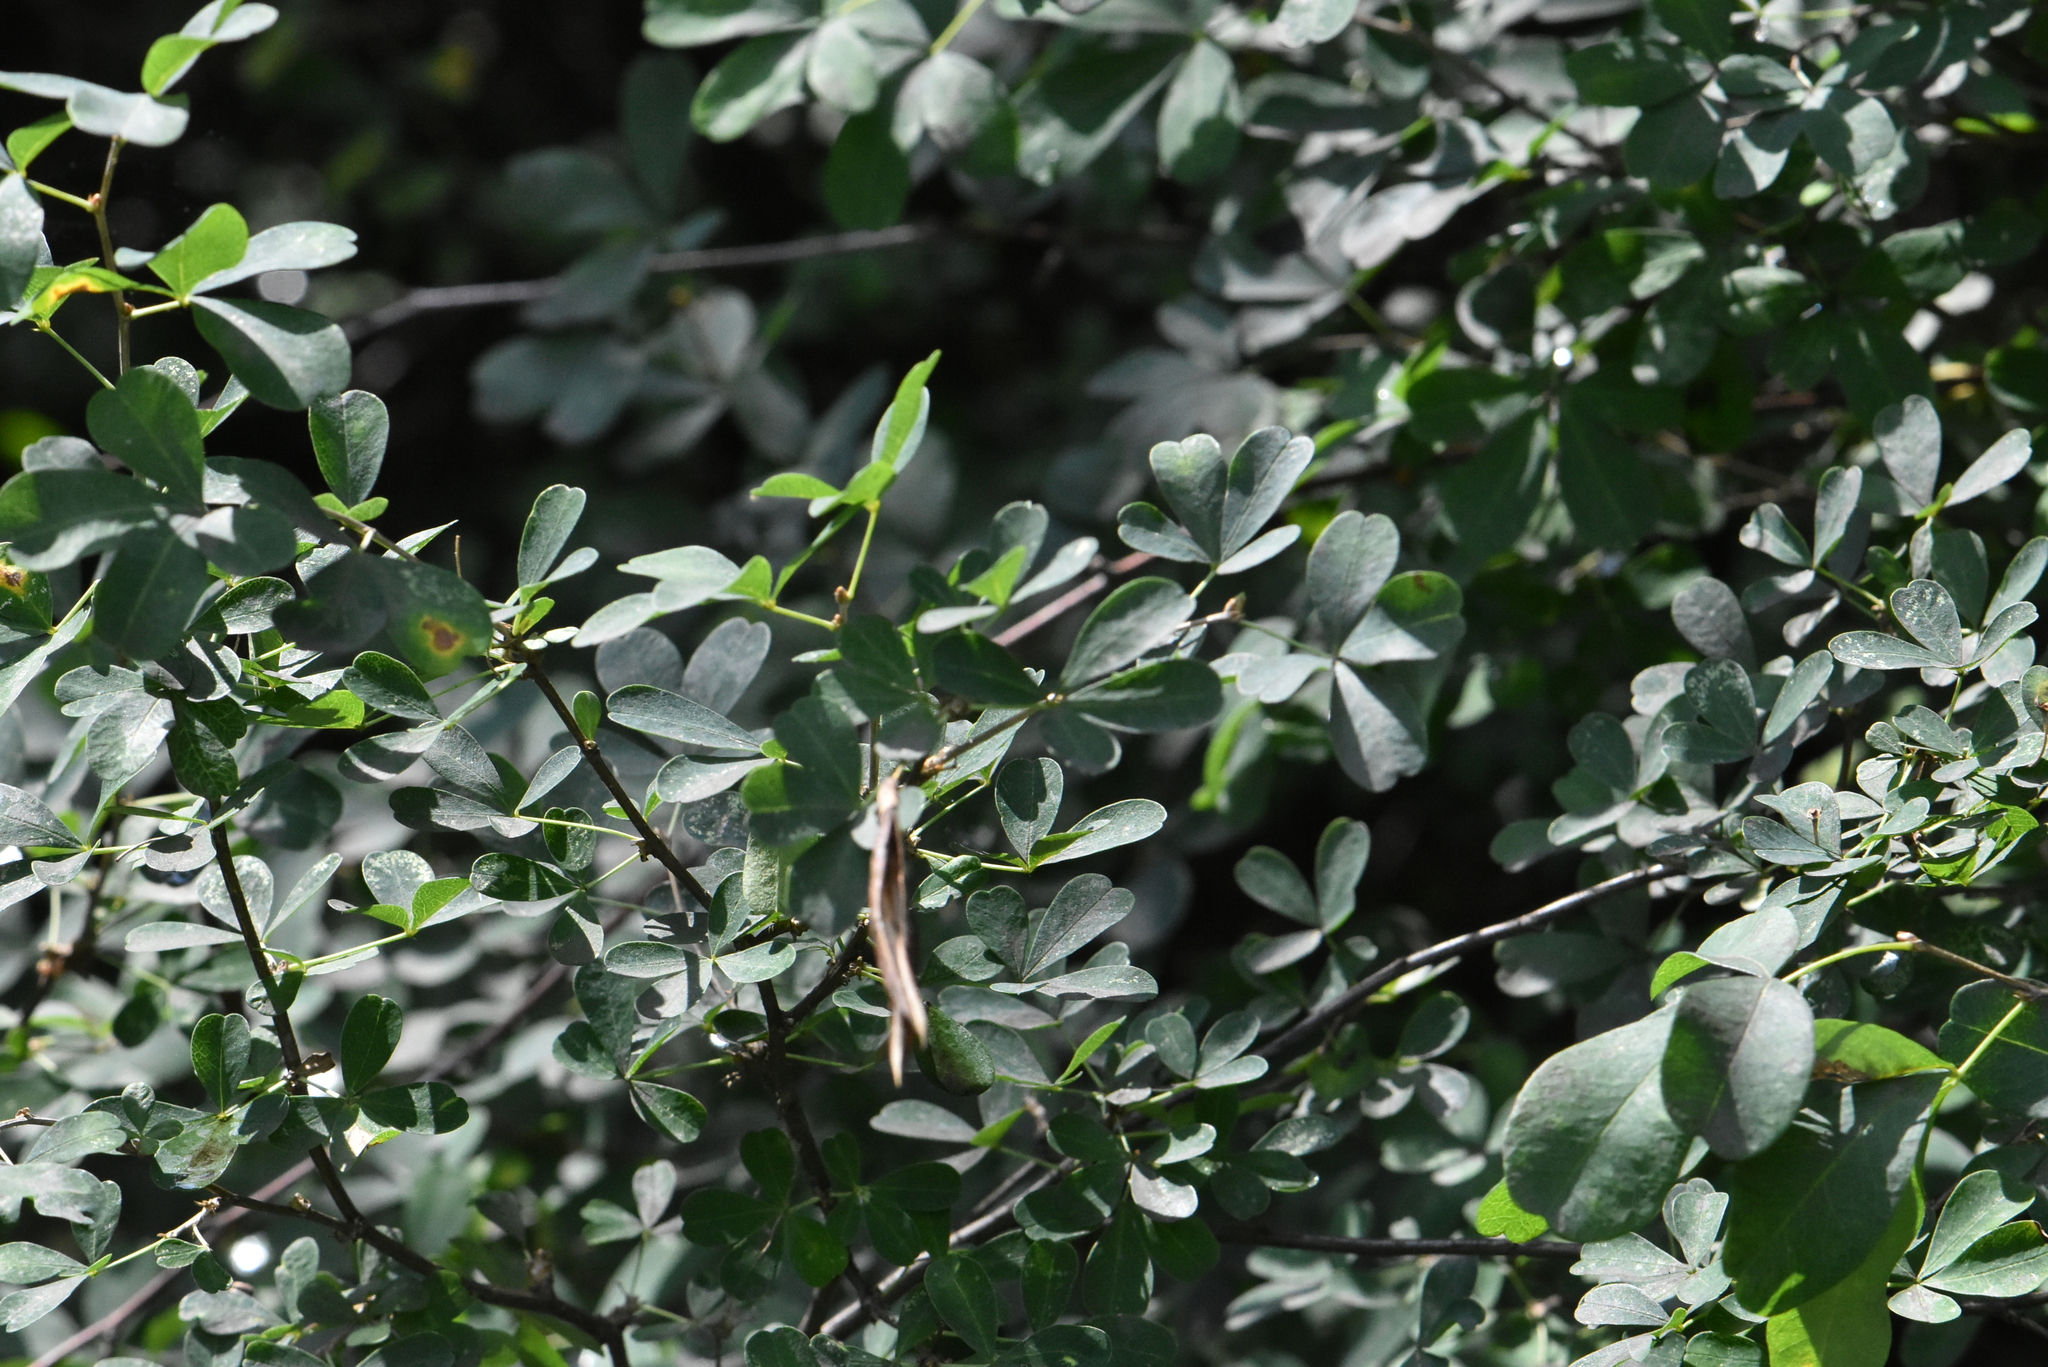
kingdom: Plantae
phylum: Tracheophyta
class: Magnoliopsida
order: Fabales
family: Fabaceae
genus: Caragana
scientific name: Caragana frutex
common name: Russian peashrub
